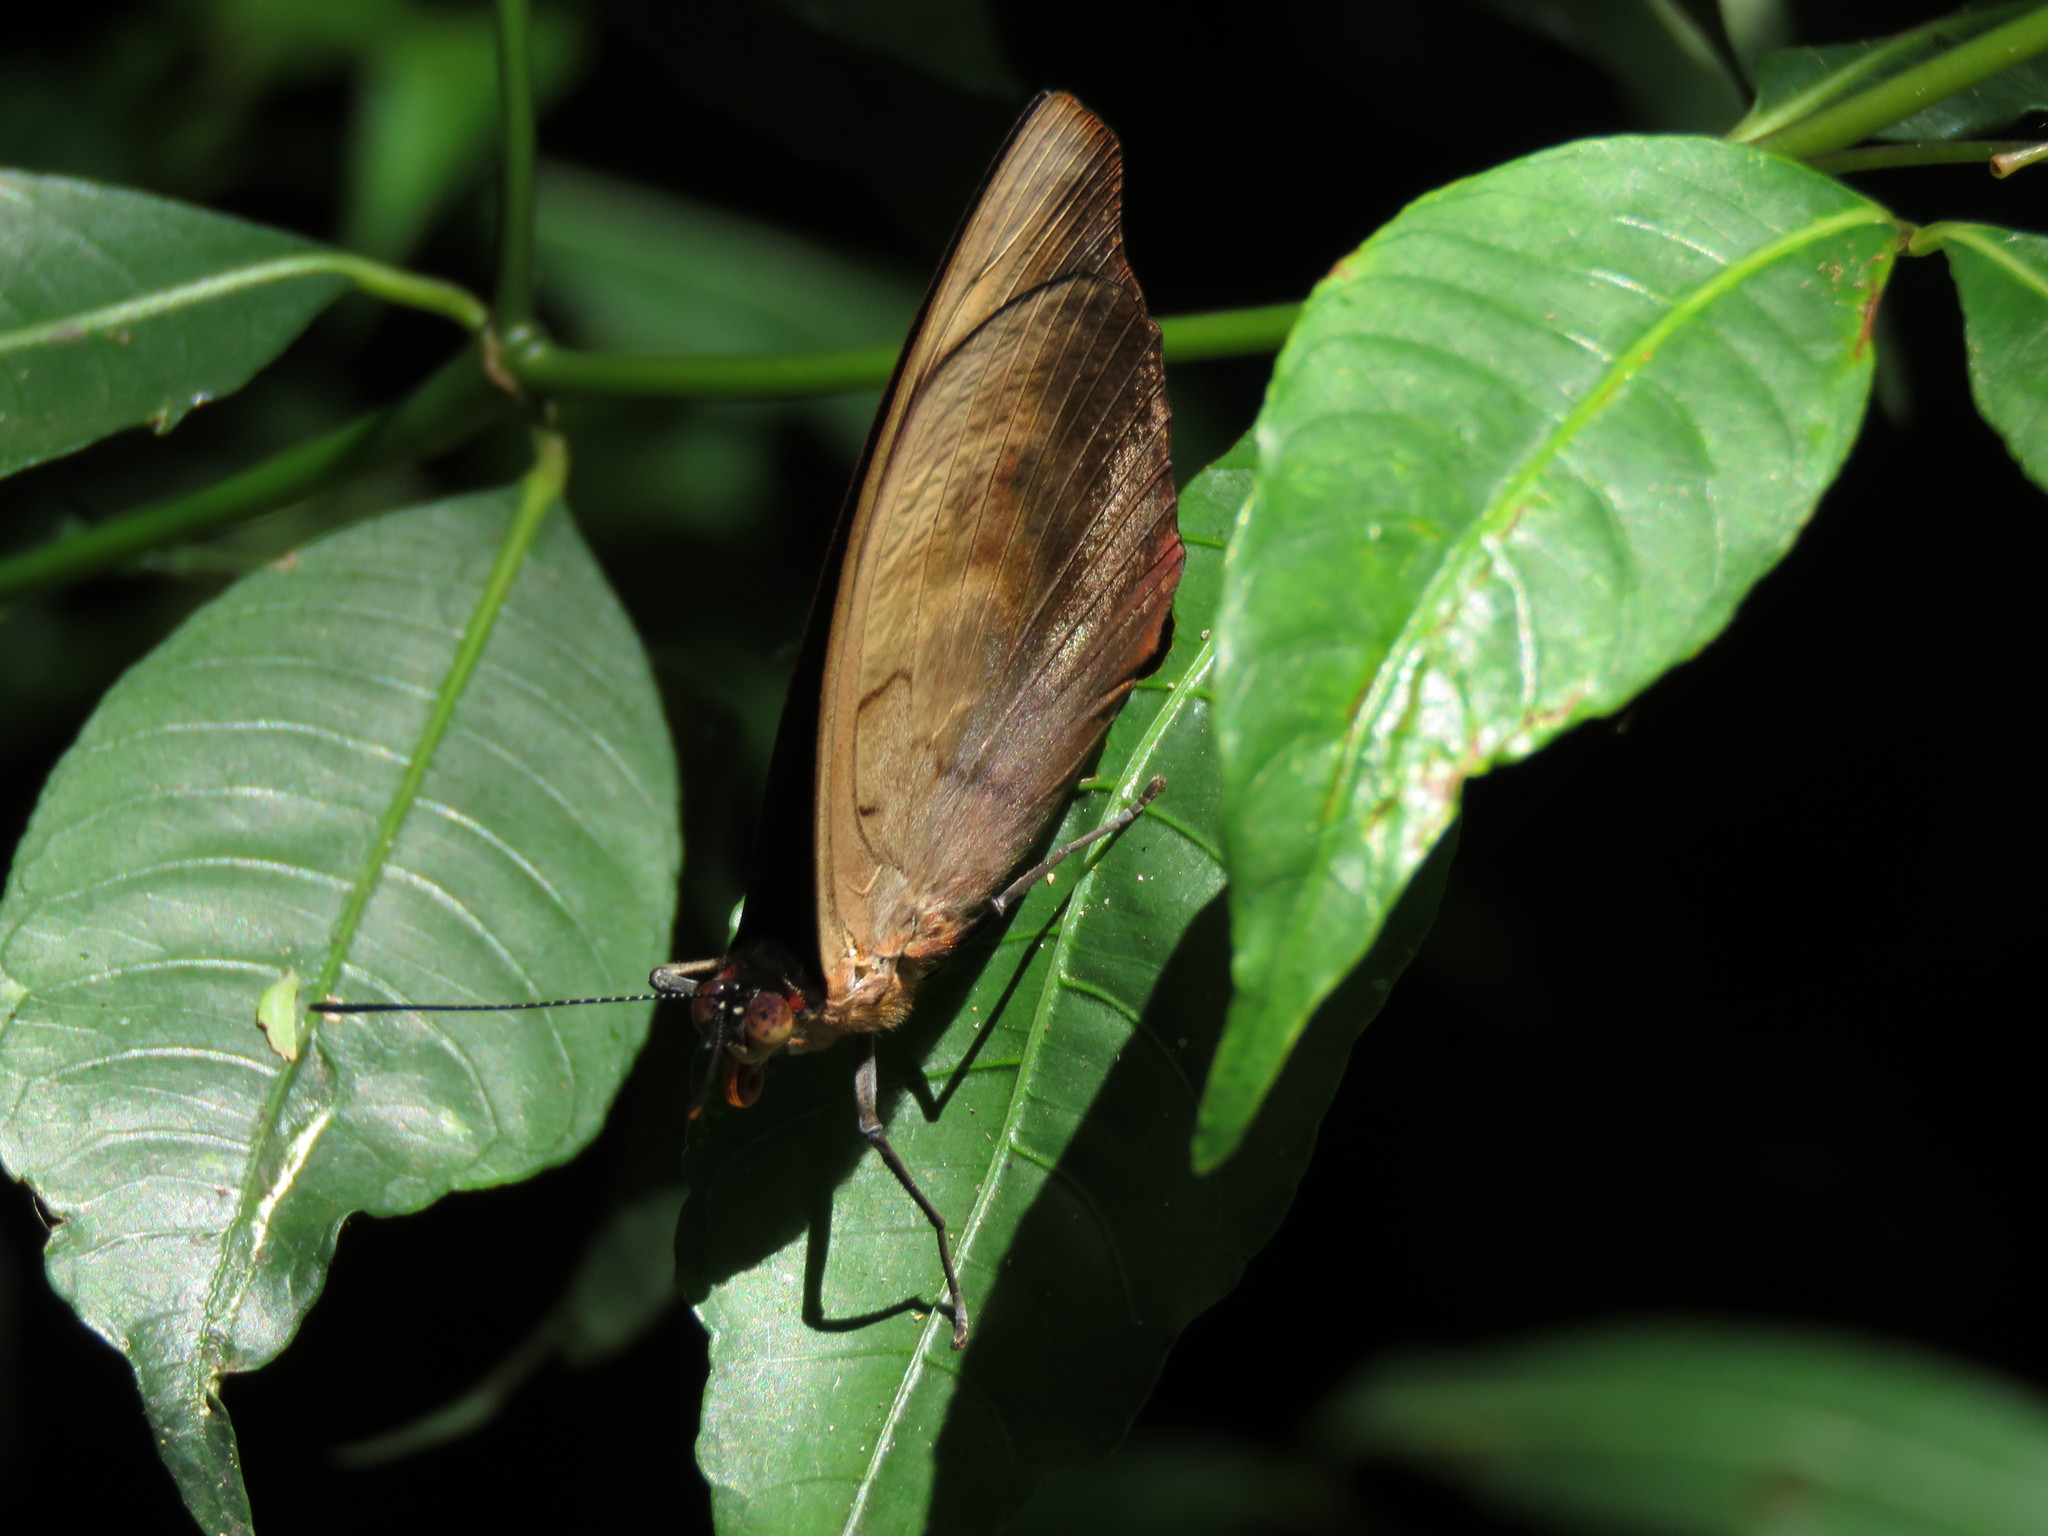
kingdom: Animalia
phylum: Arthropoda
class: Insecta
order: Lepidoptera
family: Nymphalidae
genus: Catonephele
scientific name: Catonephele numilia
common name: Blue-frosted banner
